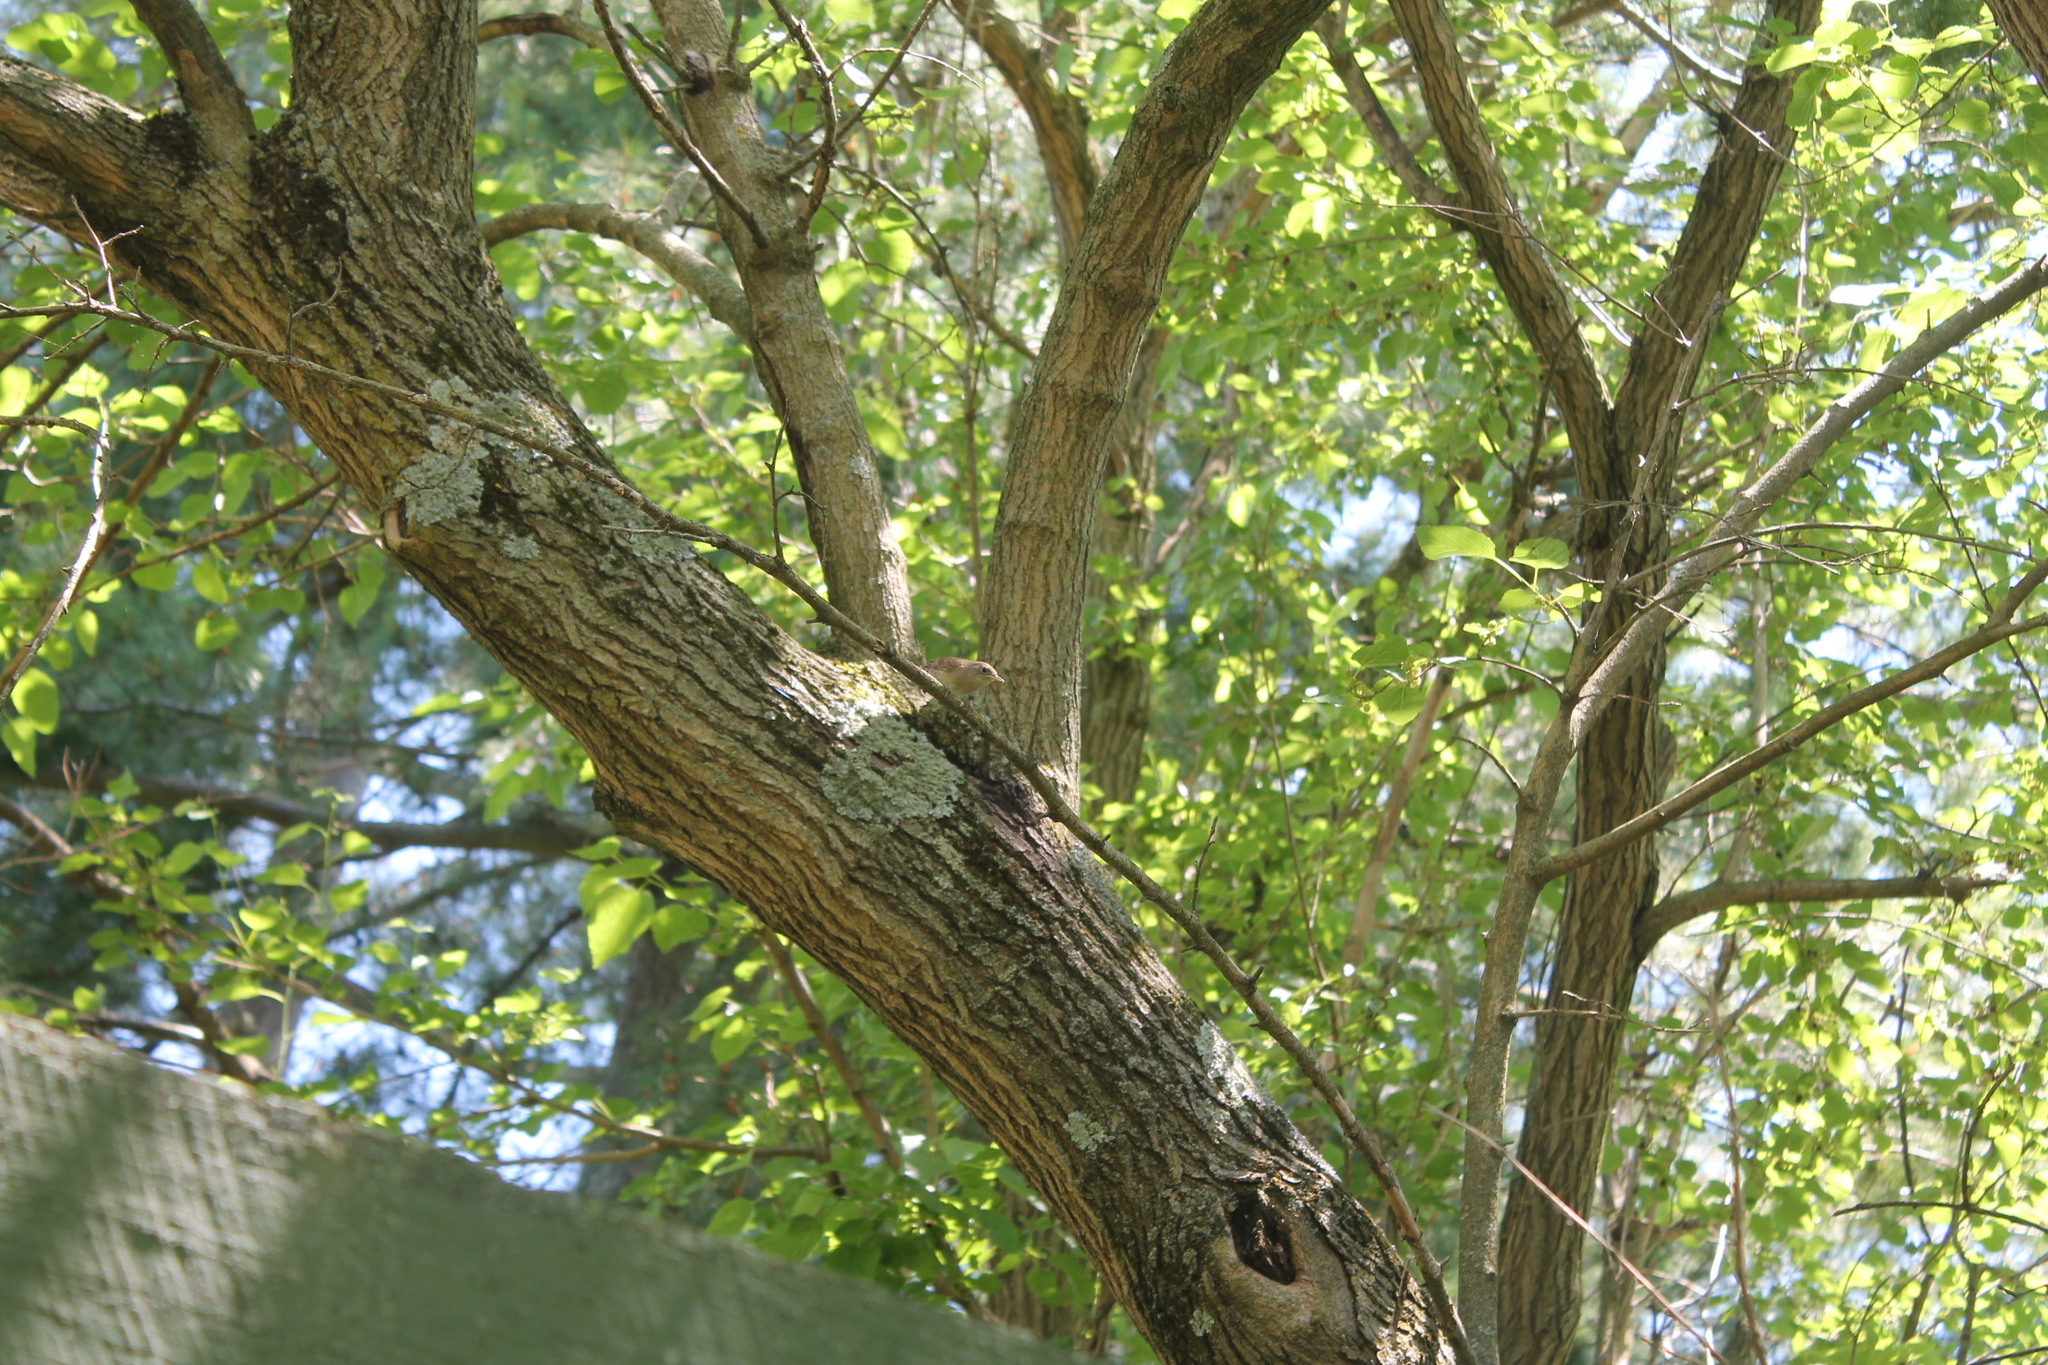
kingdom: Animalia
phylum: Chordata
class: Aves
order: Passeriformes
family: Troglodytidae
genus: Troglodytes
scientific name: Troglodytes aedon
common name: House wren
